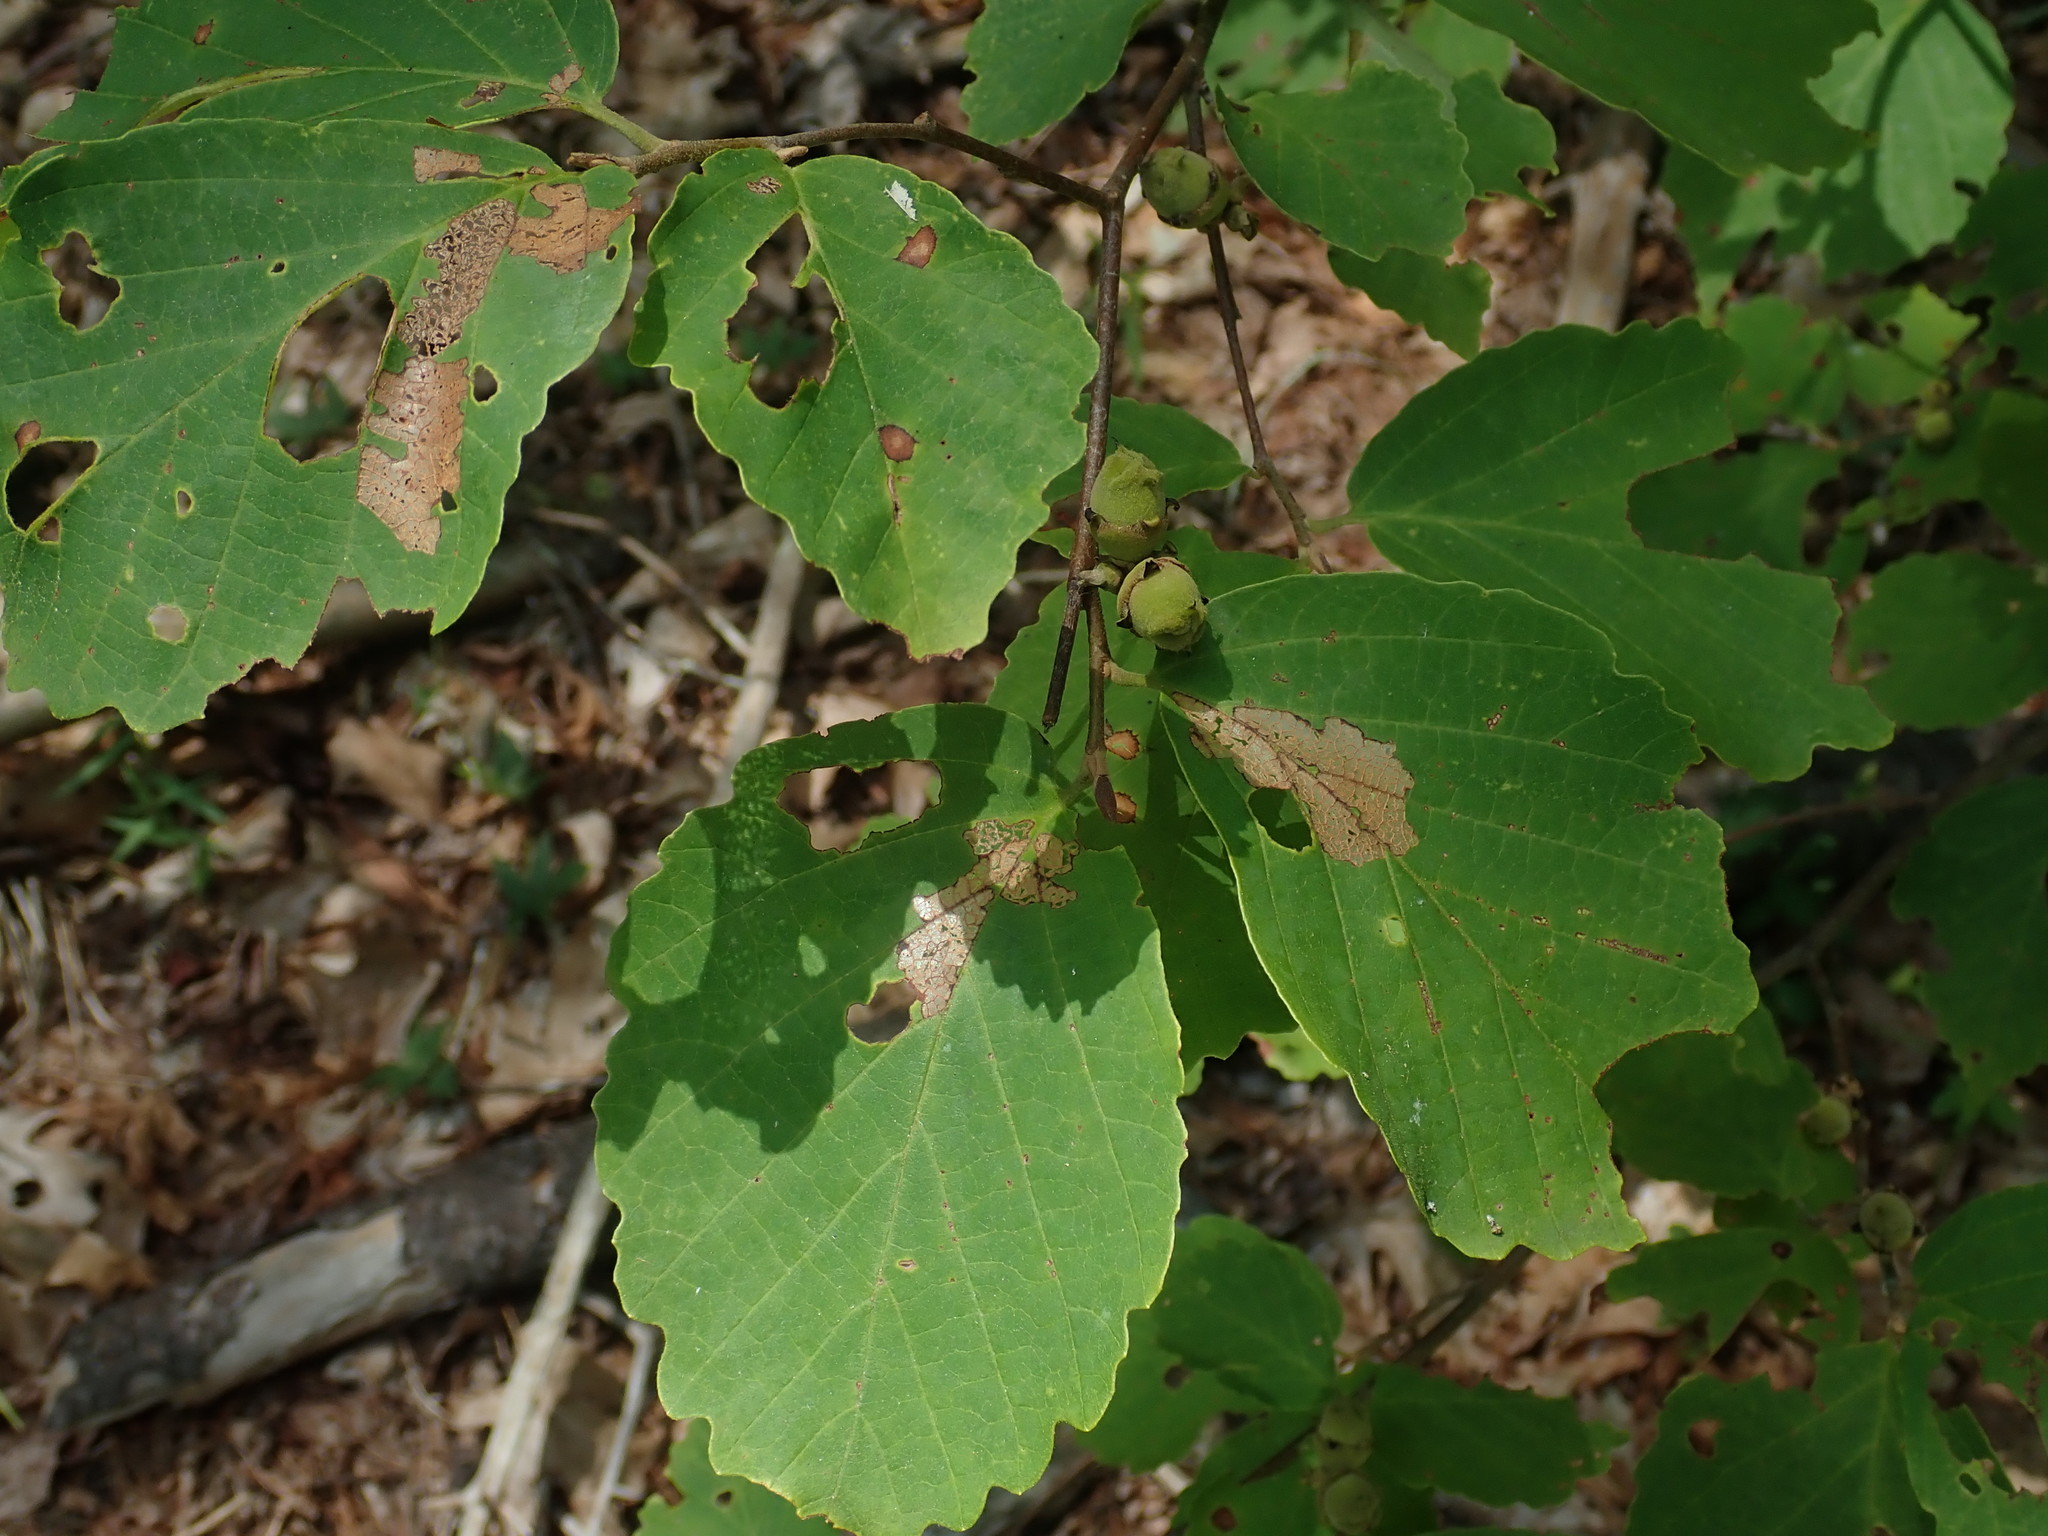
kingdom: Plantae
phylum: Tracheophyta
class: Magnoliopsida
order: Saxifragales
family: Hamamelidaceae
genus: Hamamelis
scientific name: Hamamelis virginiana
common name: Witch-hazel
